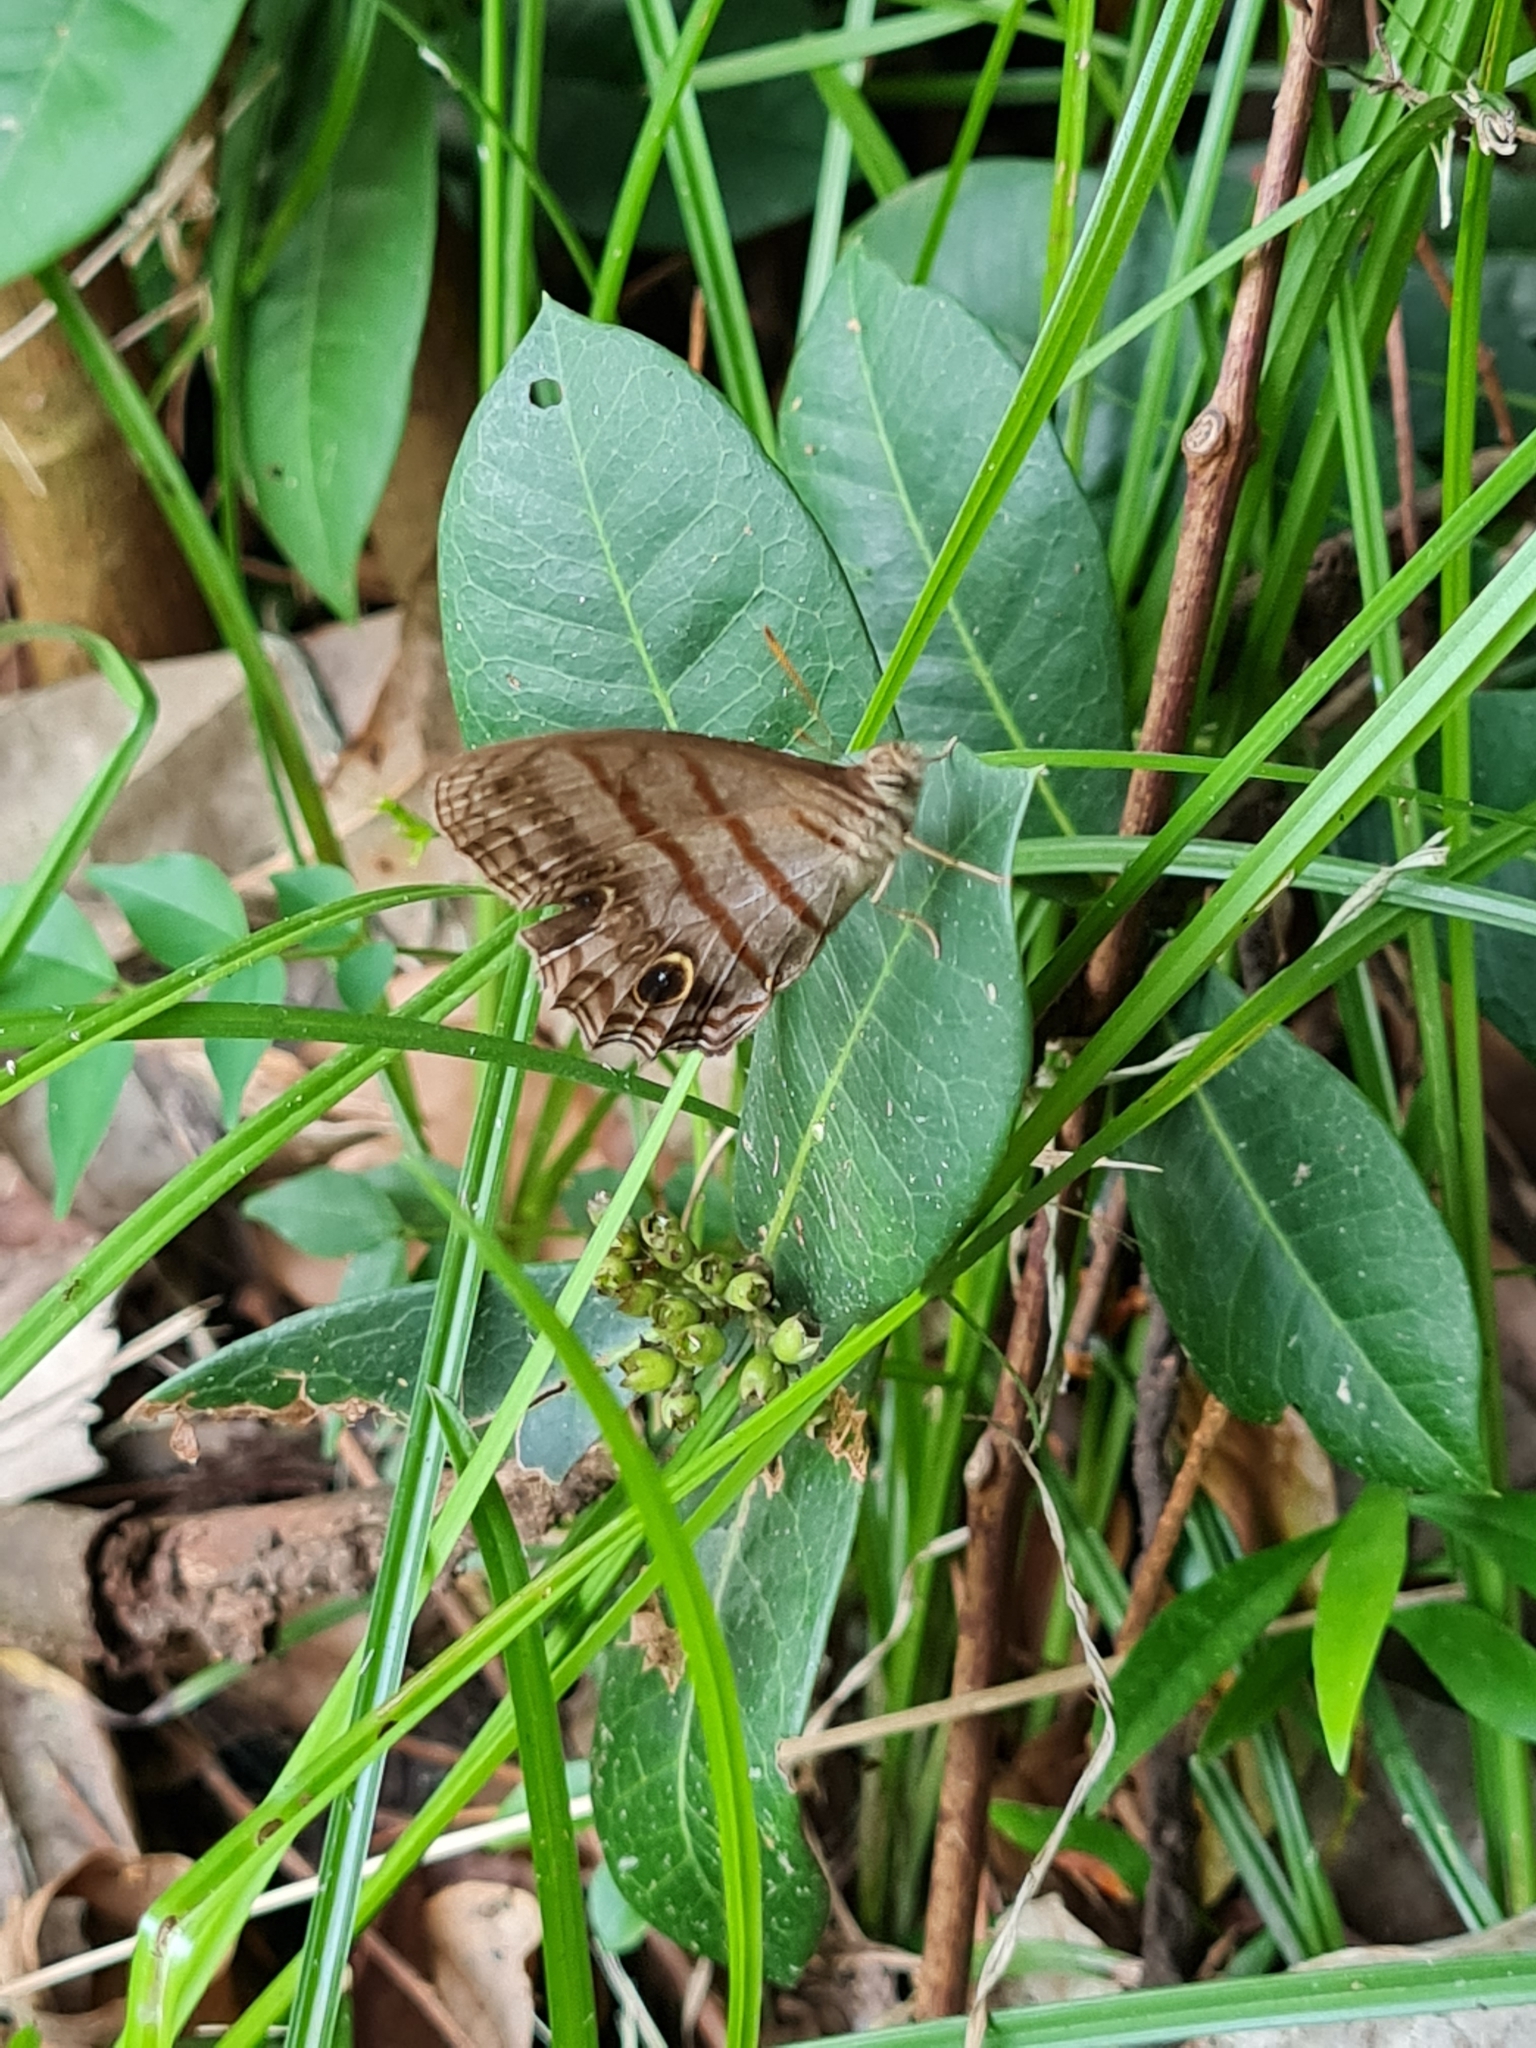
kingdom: Animalia
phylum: Arthropoda
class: Insecta
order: Lepidoptera
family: Nymphalidae
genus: Magneuptychia
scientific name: Magneuptychia libye
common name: Blue-gray satyr
